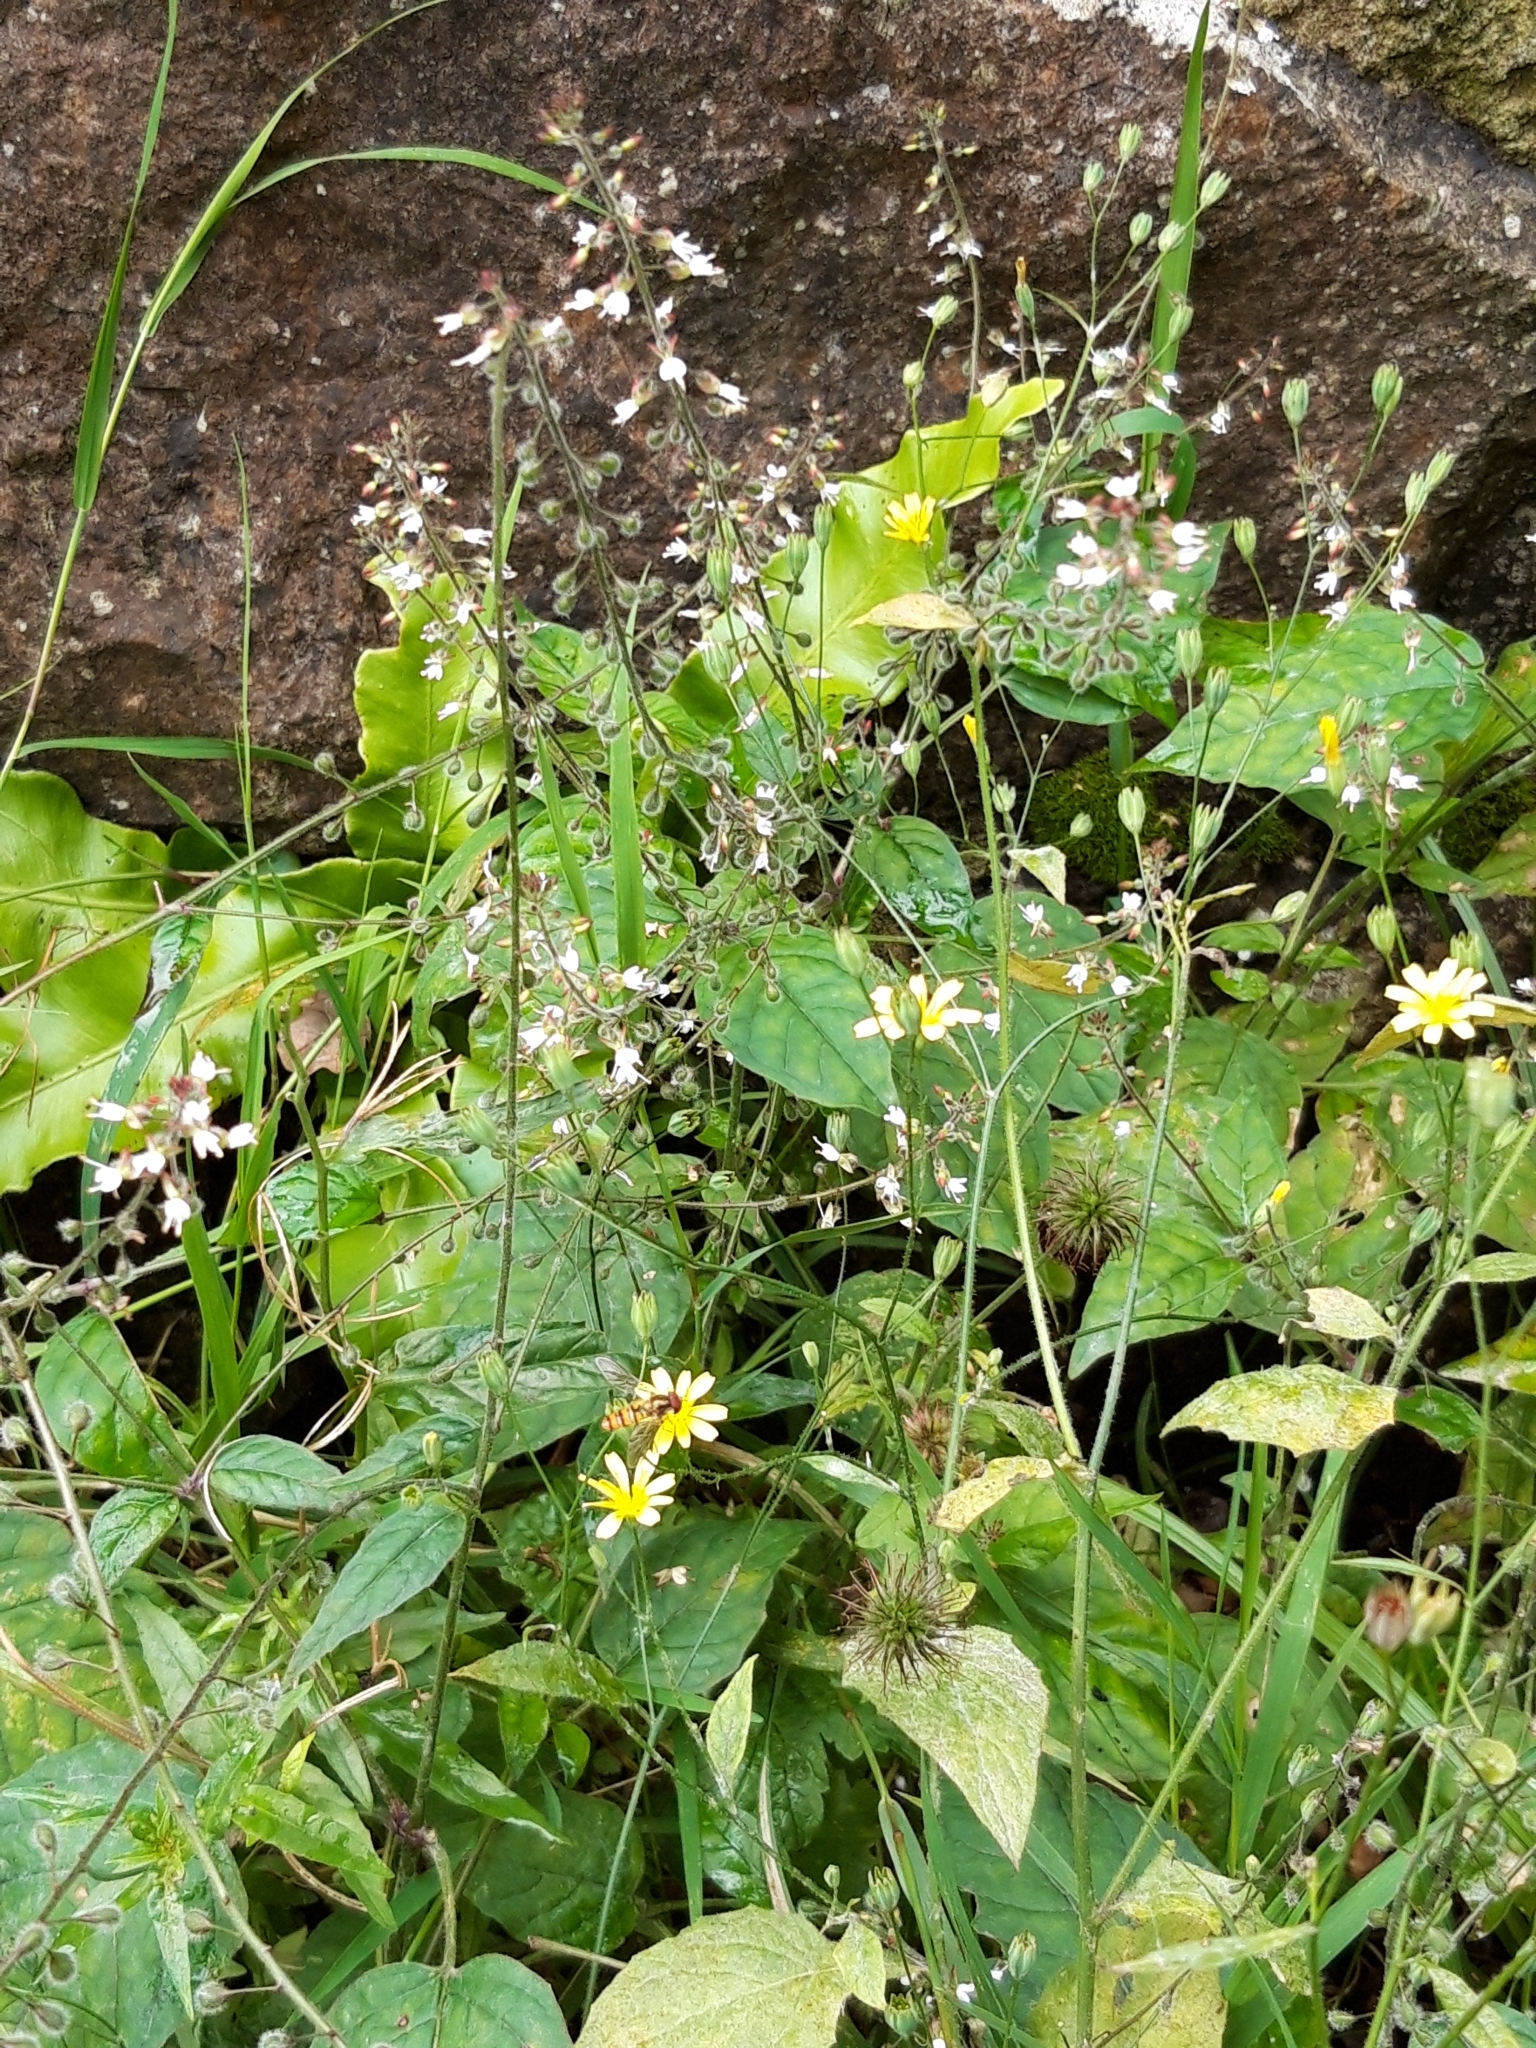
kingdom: Plantae
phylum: Tracheophyta
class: Magnoliopsida
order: Myrtales
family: Onagraceae
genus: Circaea
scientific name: Circaea lutetiana
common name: Enchanter's-nightshade
